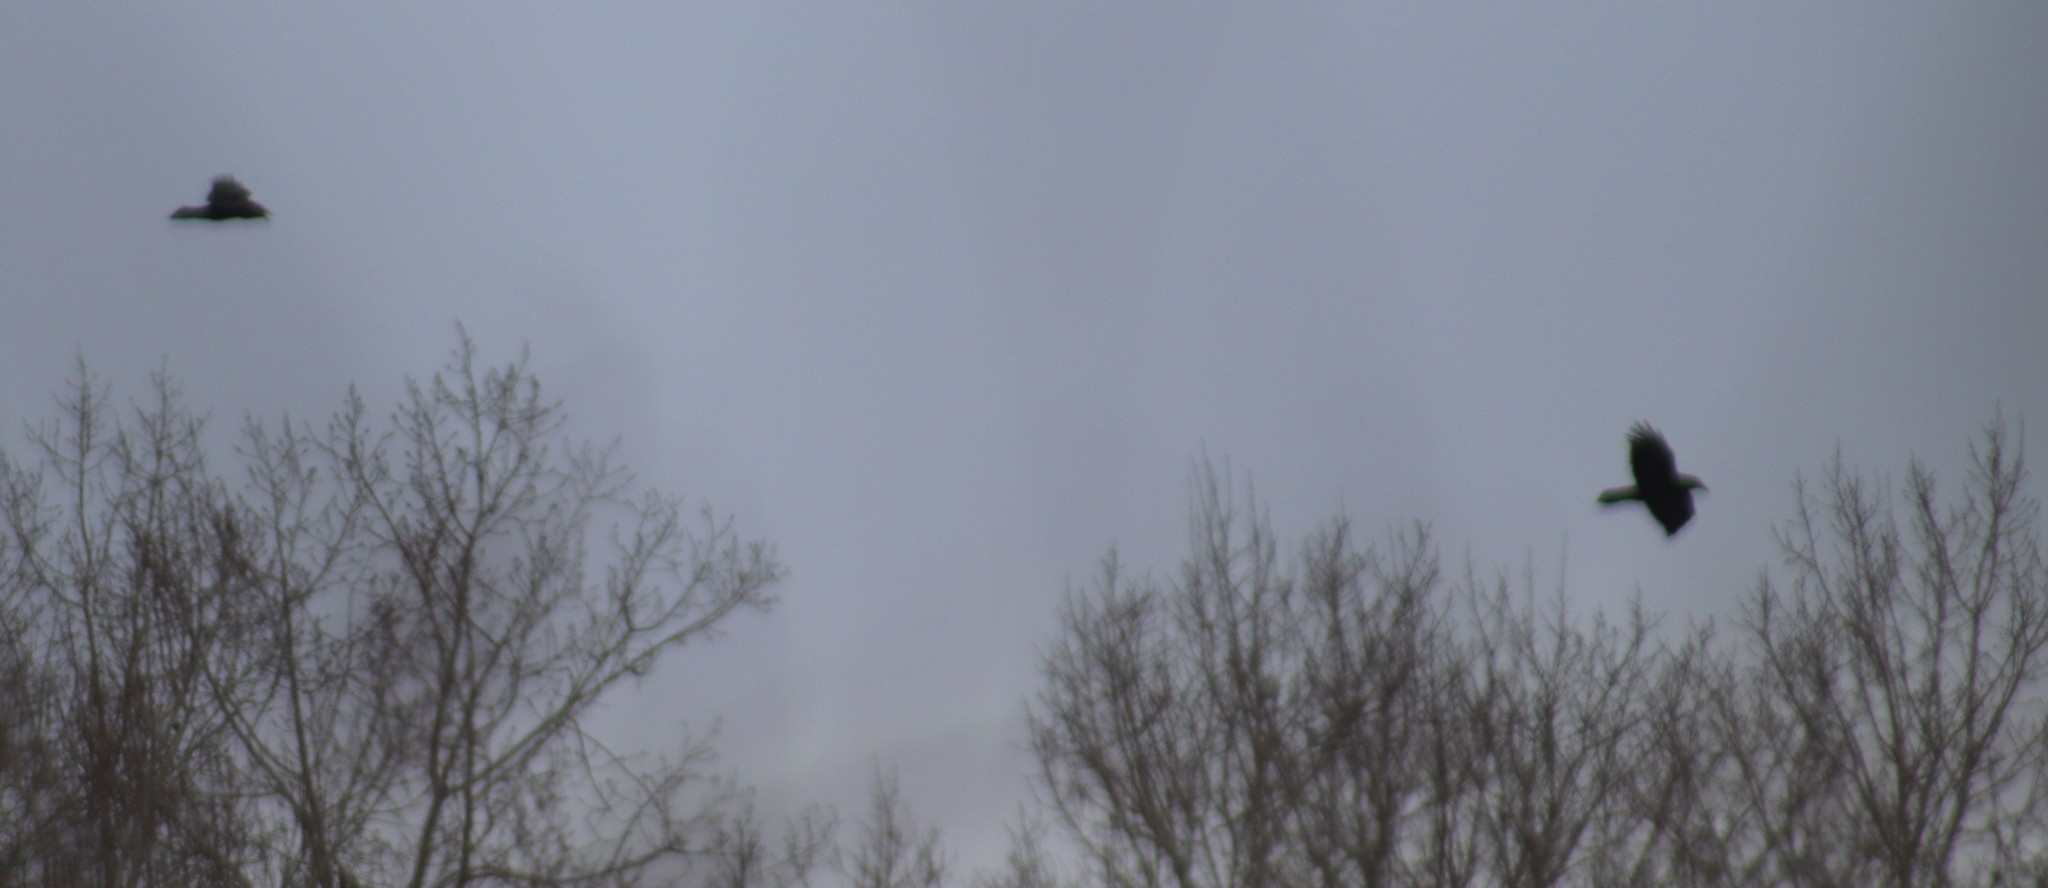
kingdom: Animalia
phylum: Chordata
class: Aves
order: Passeriformes
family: Corvidae
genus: Corvus
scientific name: Corvus corax
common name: Common raven
